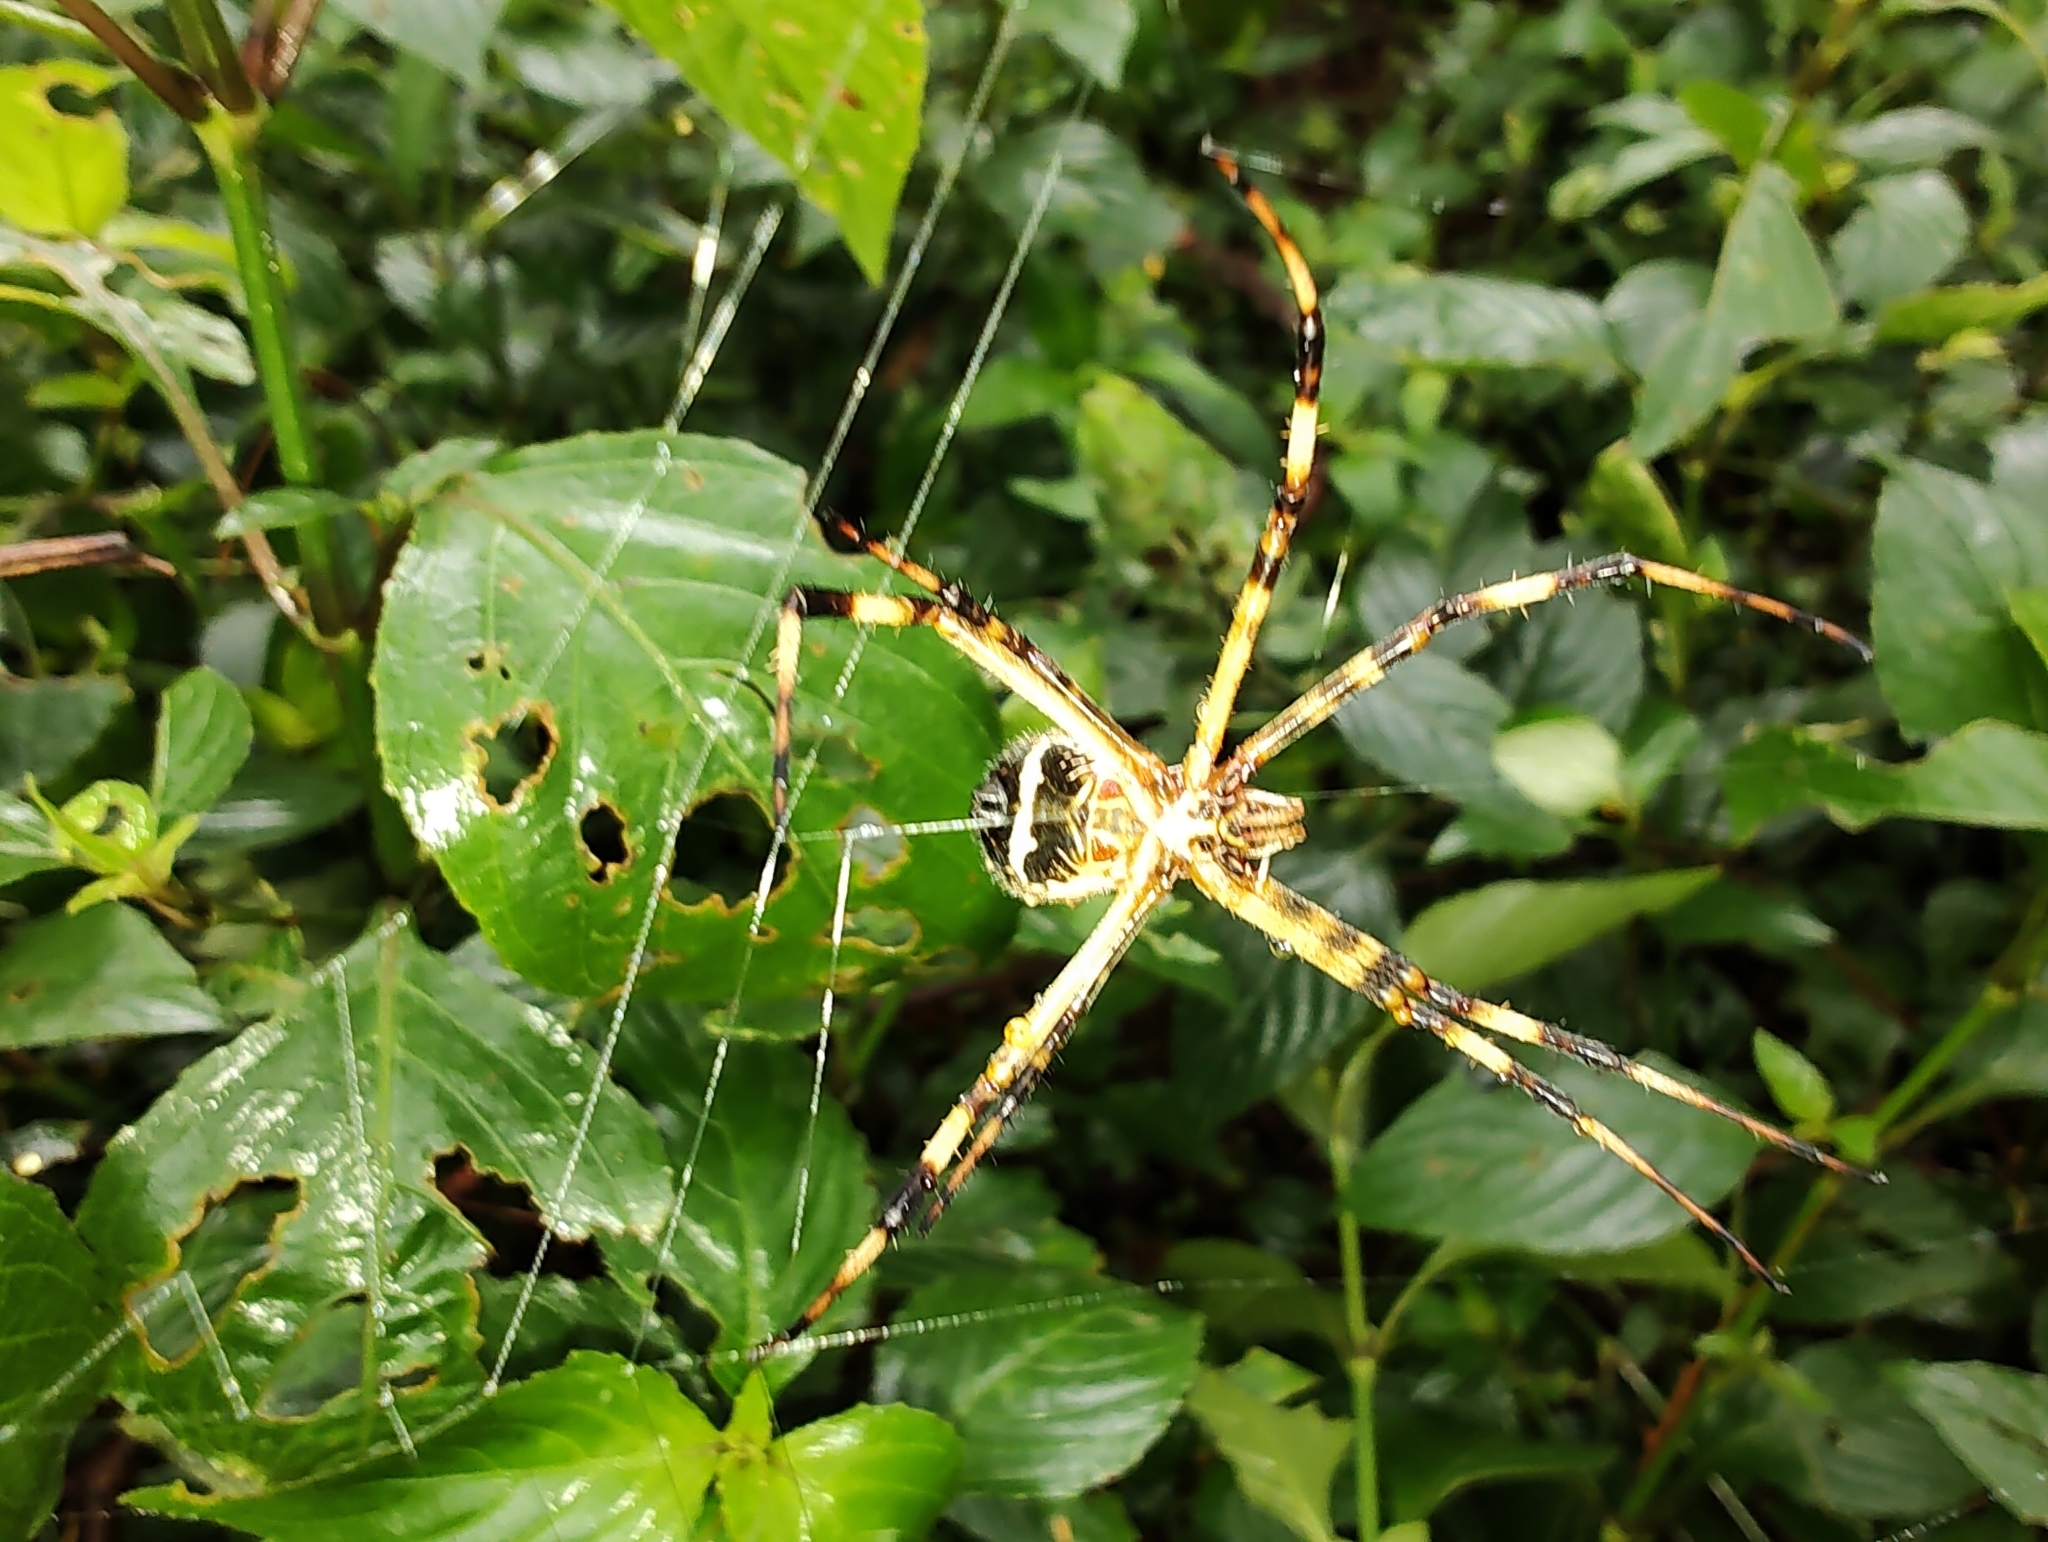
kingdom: Animalia
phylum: Arthropoda
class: Arachnida
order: Araneae
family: Araneidae
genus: Argiope
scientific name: Argiope argentata
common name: Orb weavers
